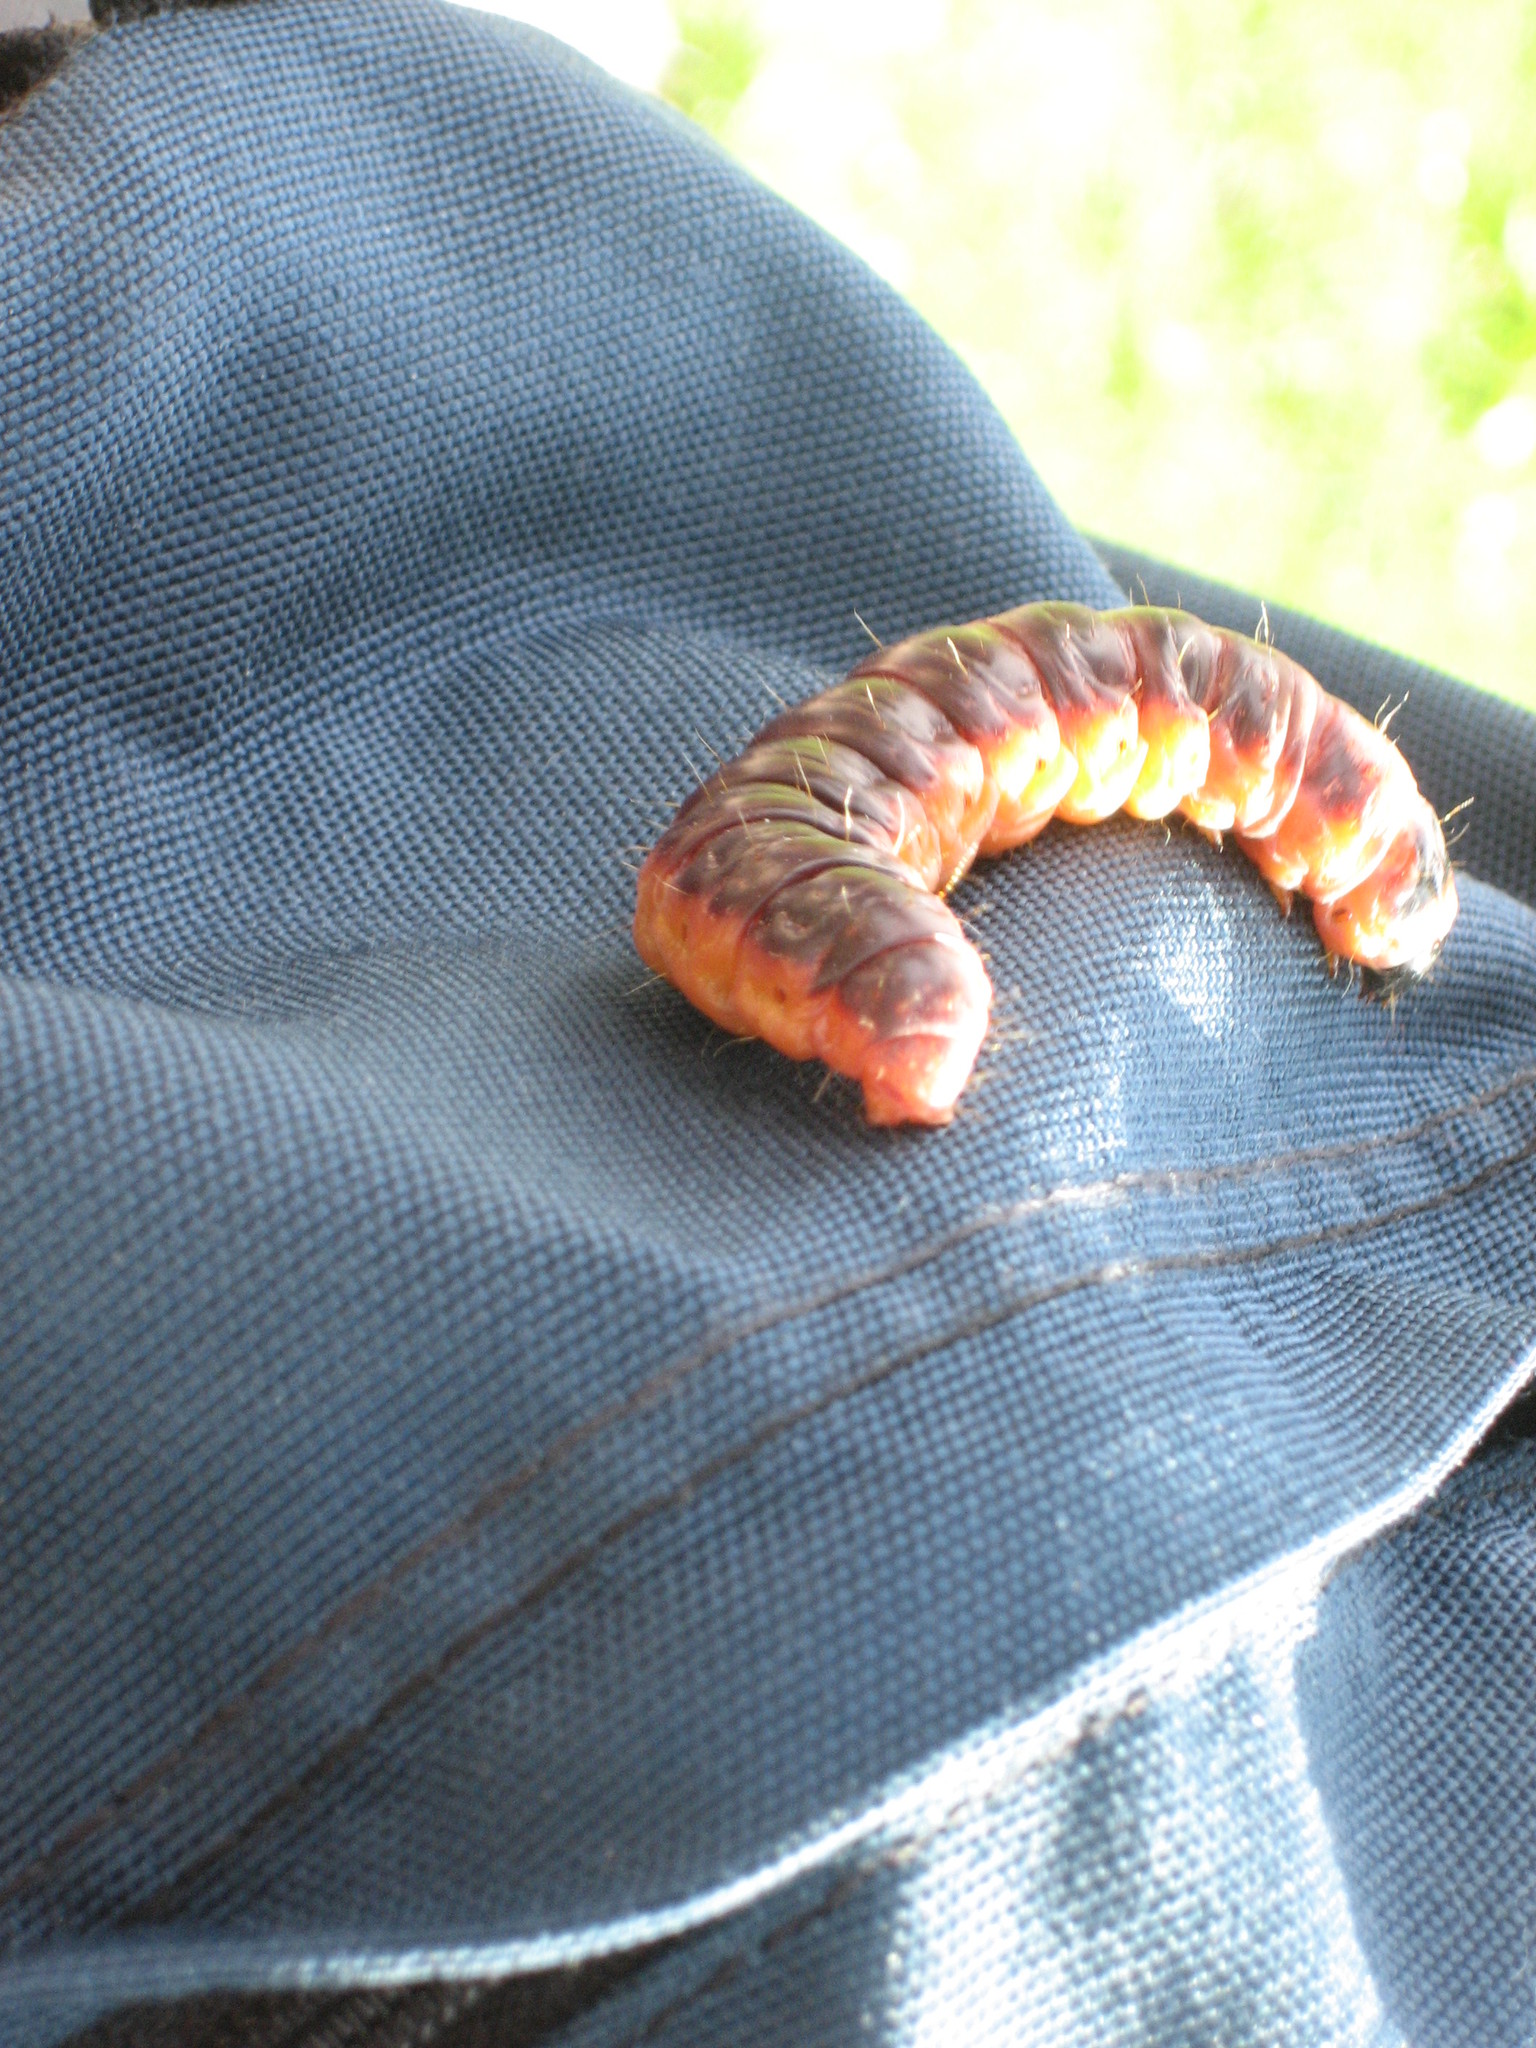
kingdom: Animalia
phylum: Arthropoda
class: Insecta
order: Lepidoptera
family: Cossidae
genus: Cossus
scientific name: Cossus cossus
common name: Goat moth
